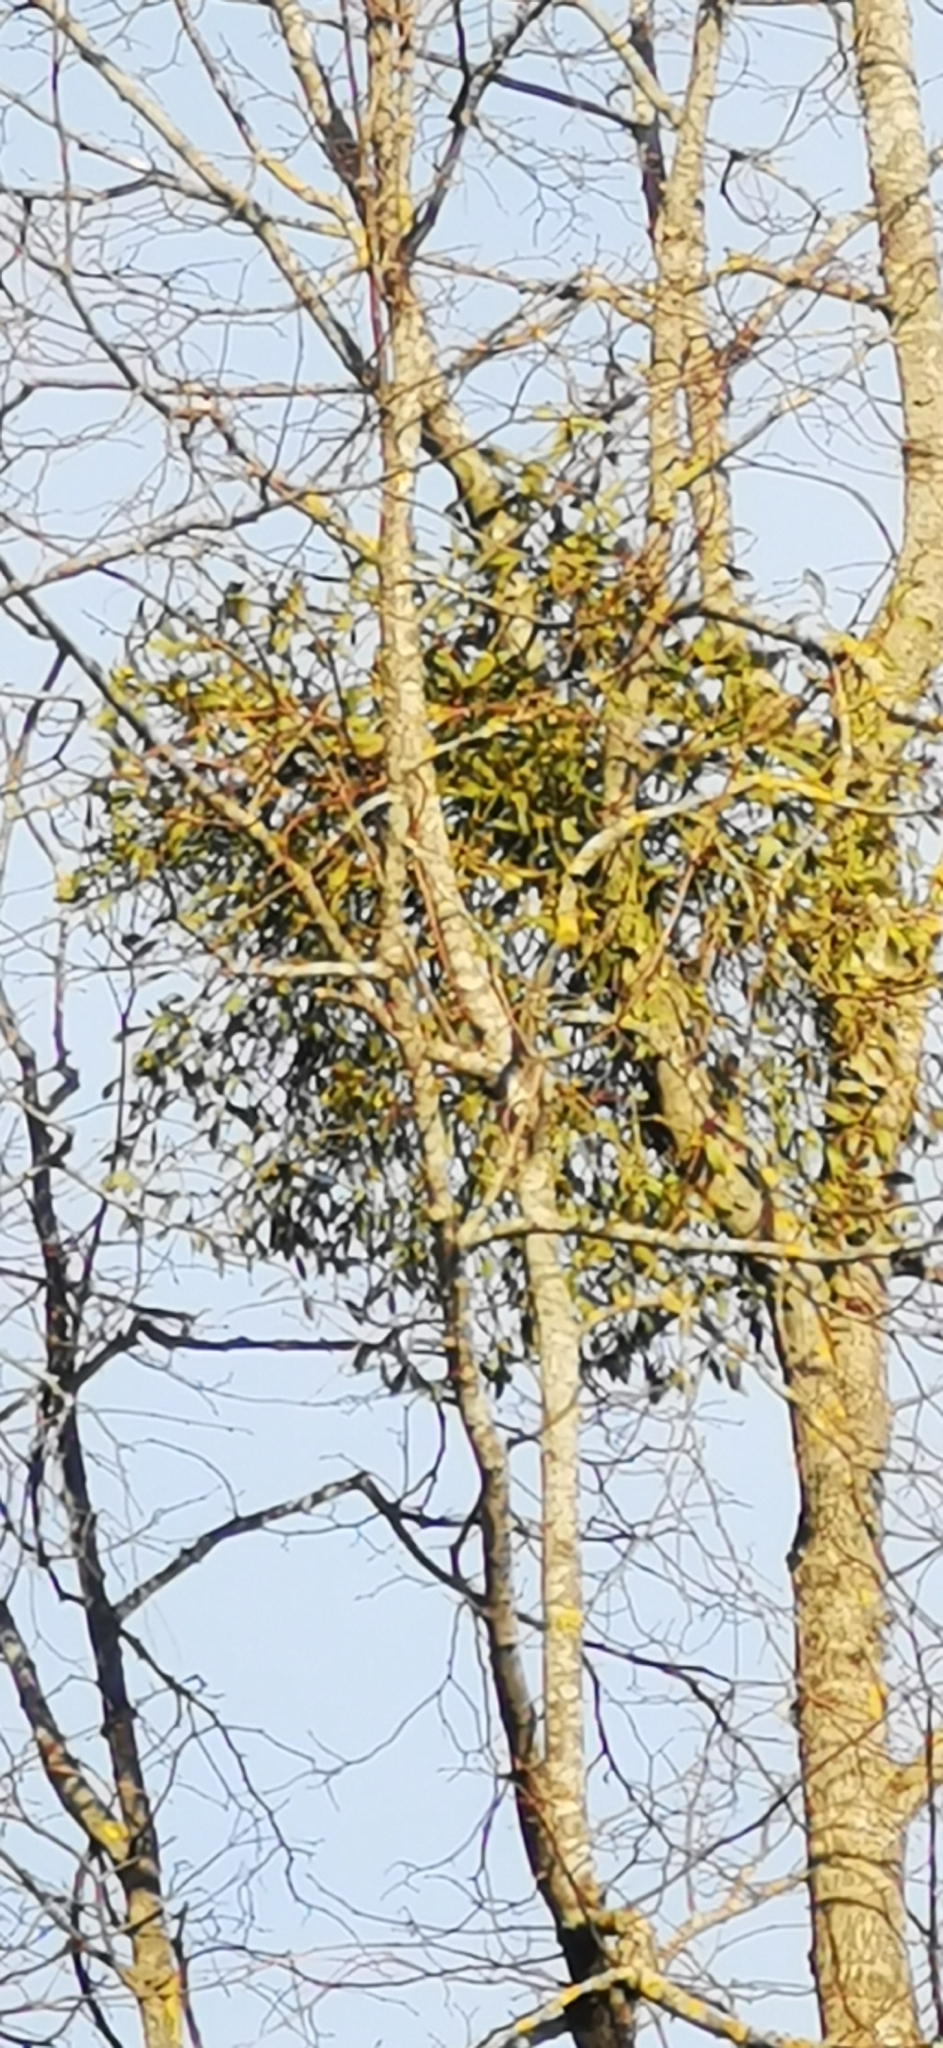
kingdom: Plantae
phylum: Tracheophyta
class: Magnoliopsida
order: Santalales
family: Viscaceae
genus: Viscum
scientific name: Viscum album
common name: Mistletoe
